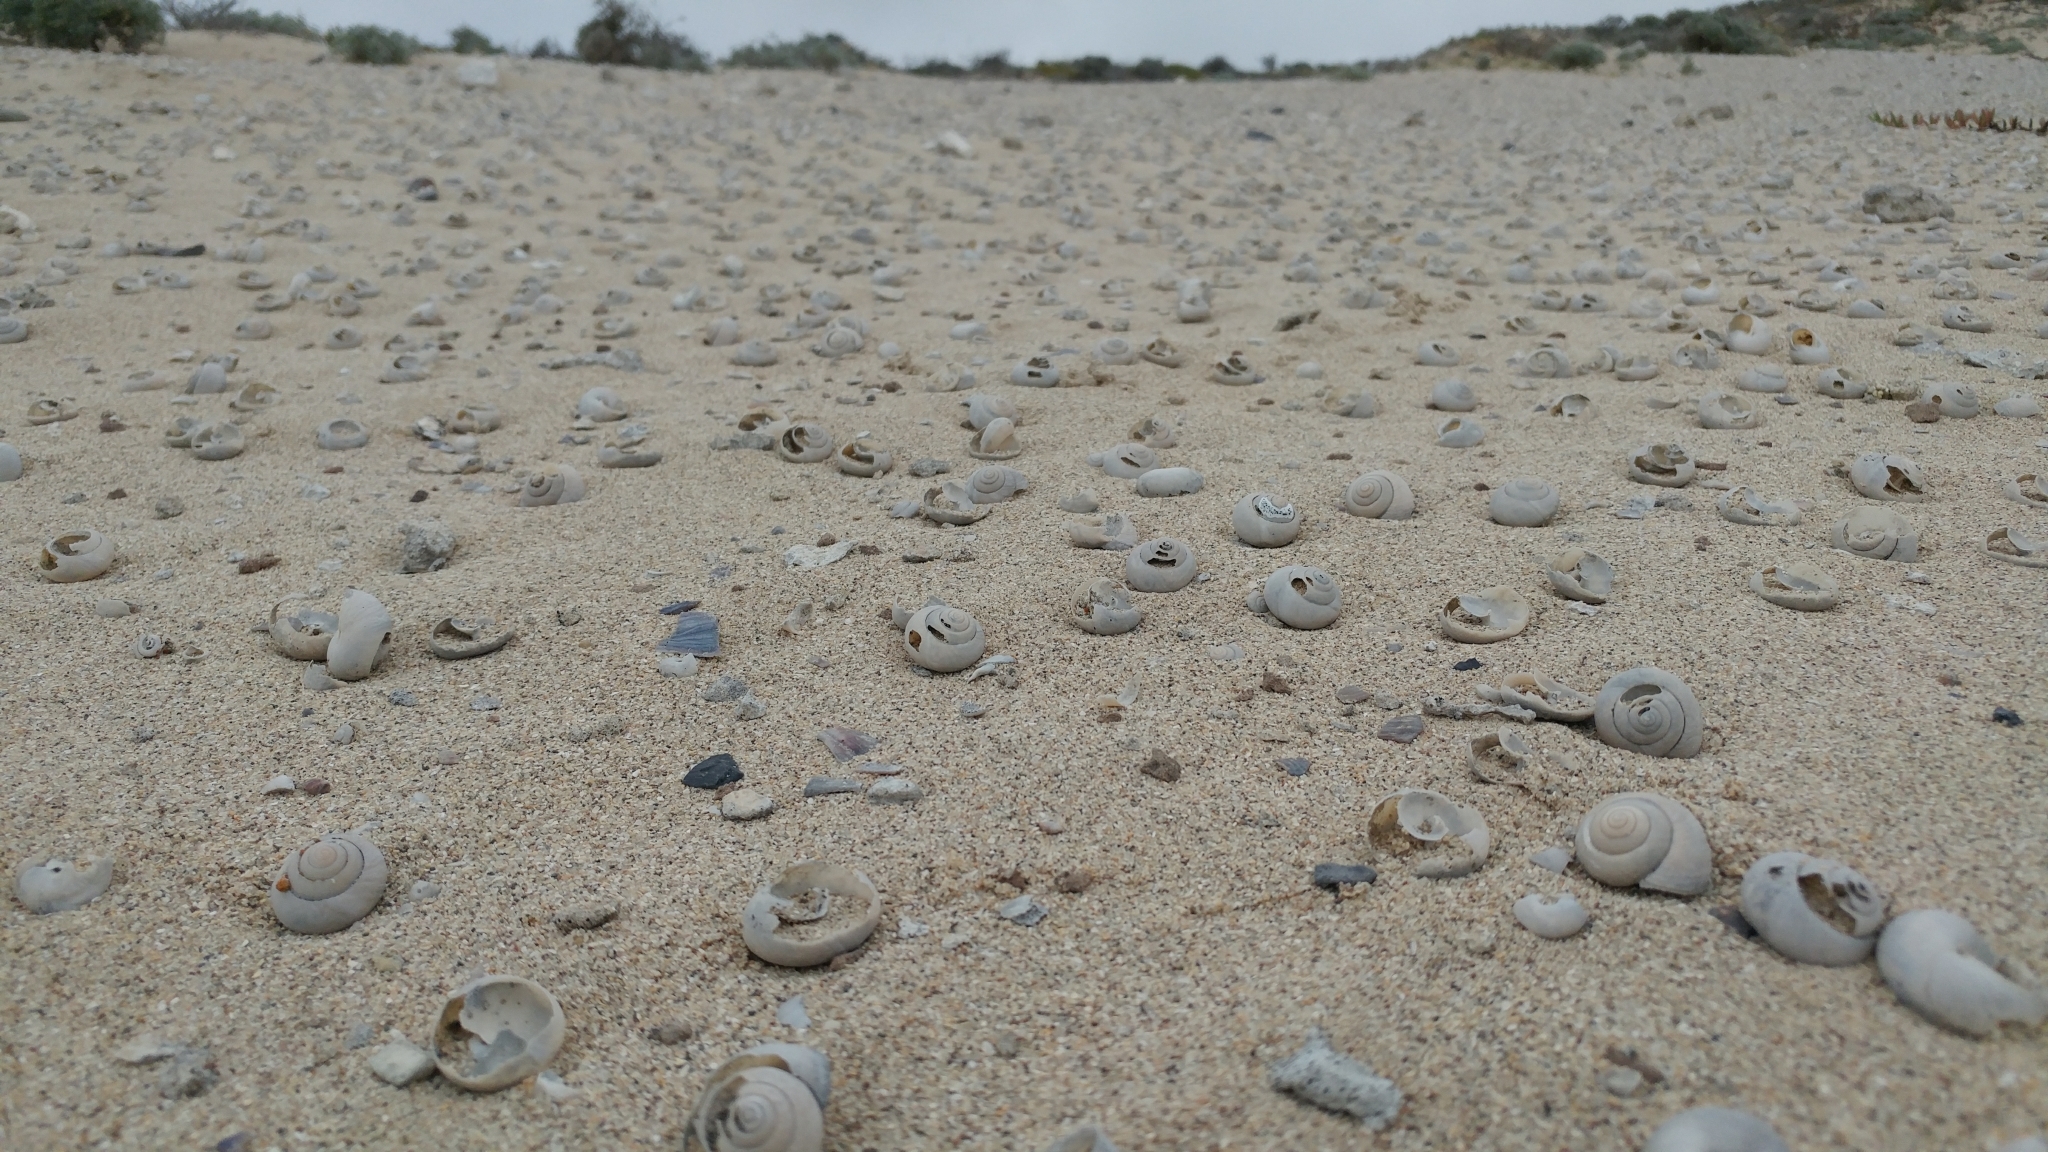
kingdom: Animalia
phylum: Mollusca
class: Gastropoda
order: Stylommatophora
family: Xanthonychidae
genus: Xerarionta
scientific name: Xerarionta tryoni
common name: Bicolor cactus snail
